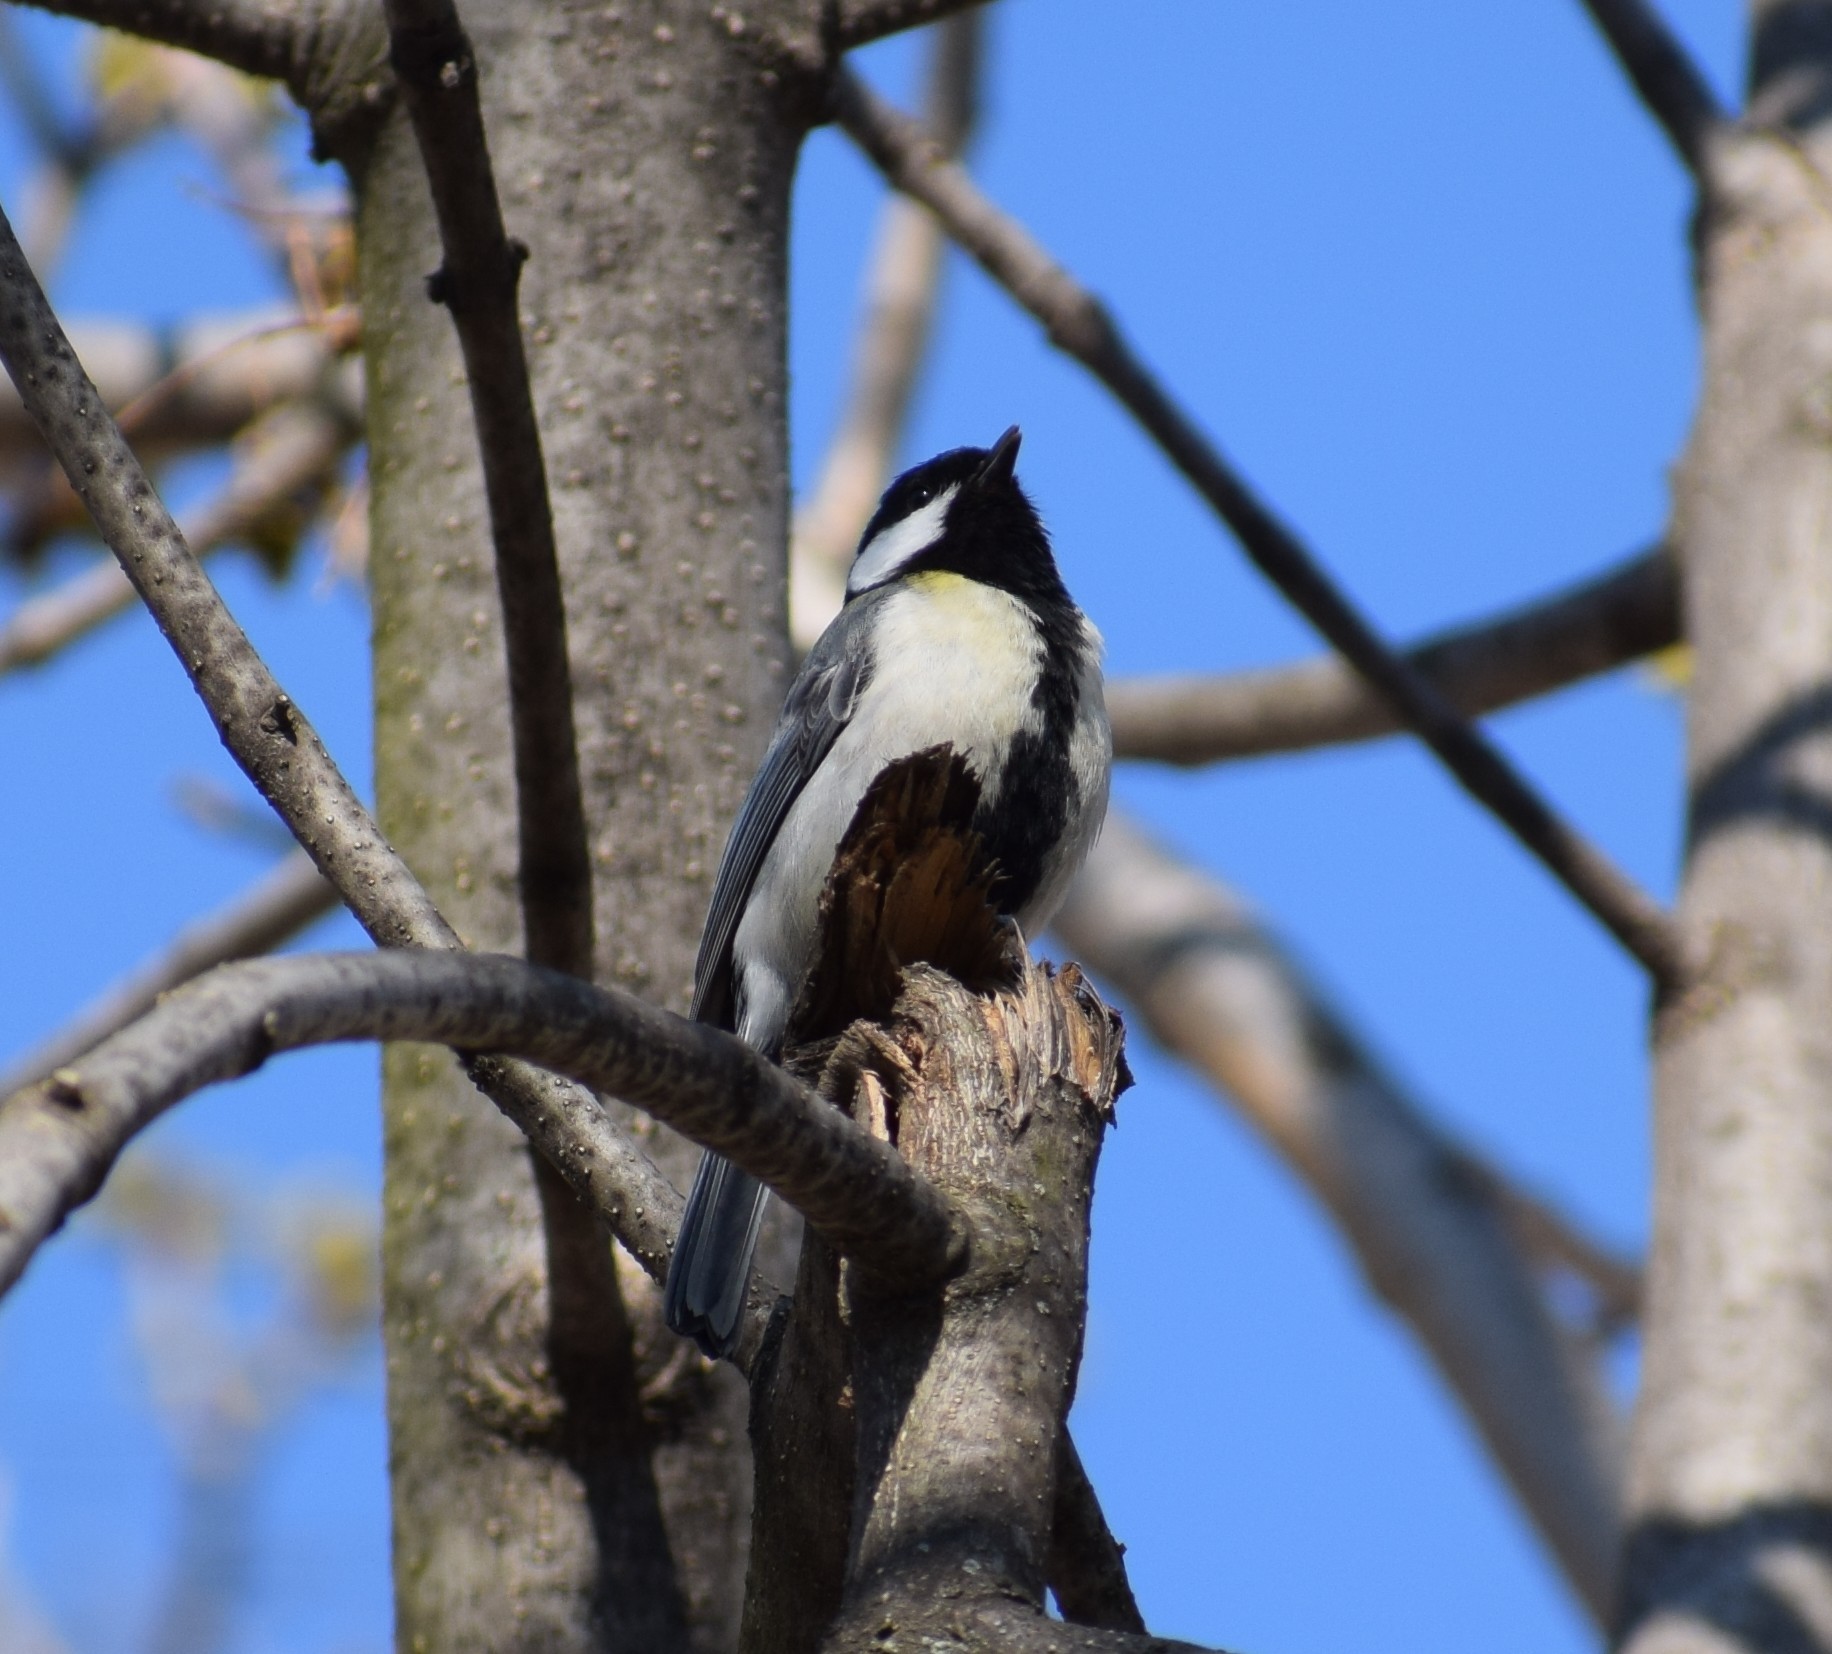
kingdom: Animalia
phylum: Chordata
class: Aves
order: Passeriformes
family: Paridae
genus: Parus
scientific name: Parus major
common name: Great tit
